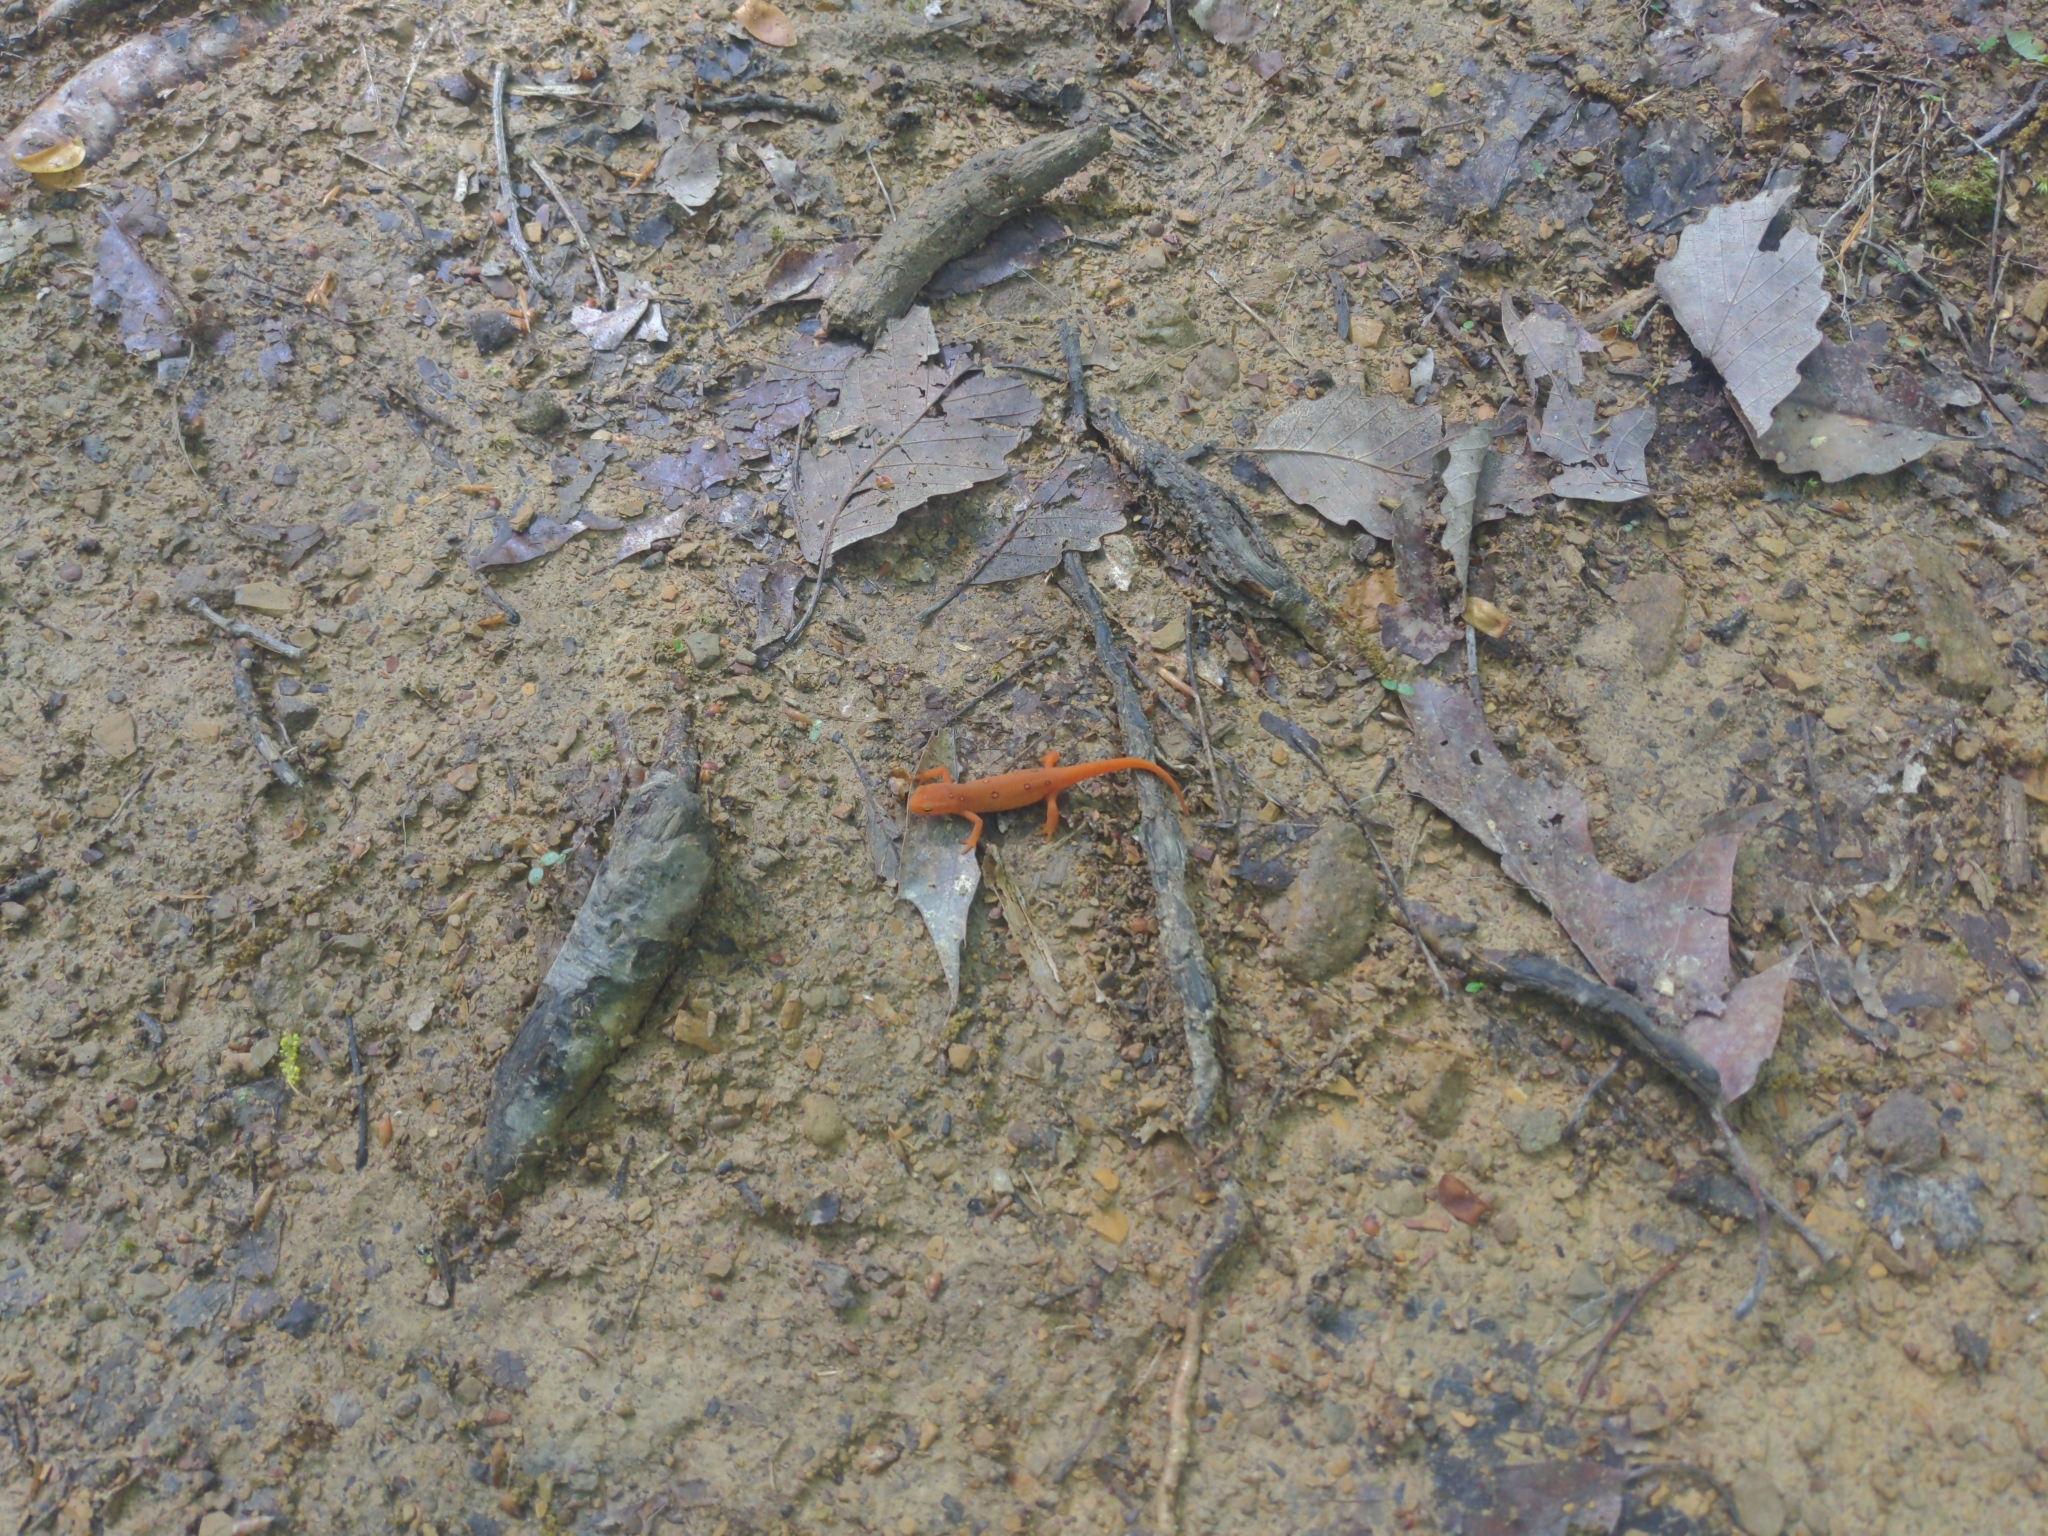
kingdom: Animalia
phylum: Chordata
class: Amphibia
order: Caudata
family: Salamandridae
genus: Notophthalmus
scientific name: Notophthalmus viridescens
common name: Eastern newt
